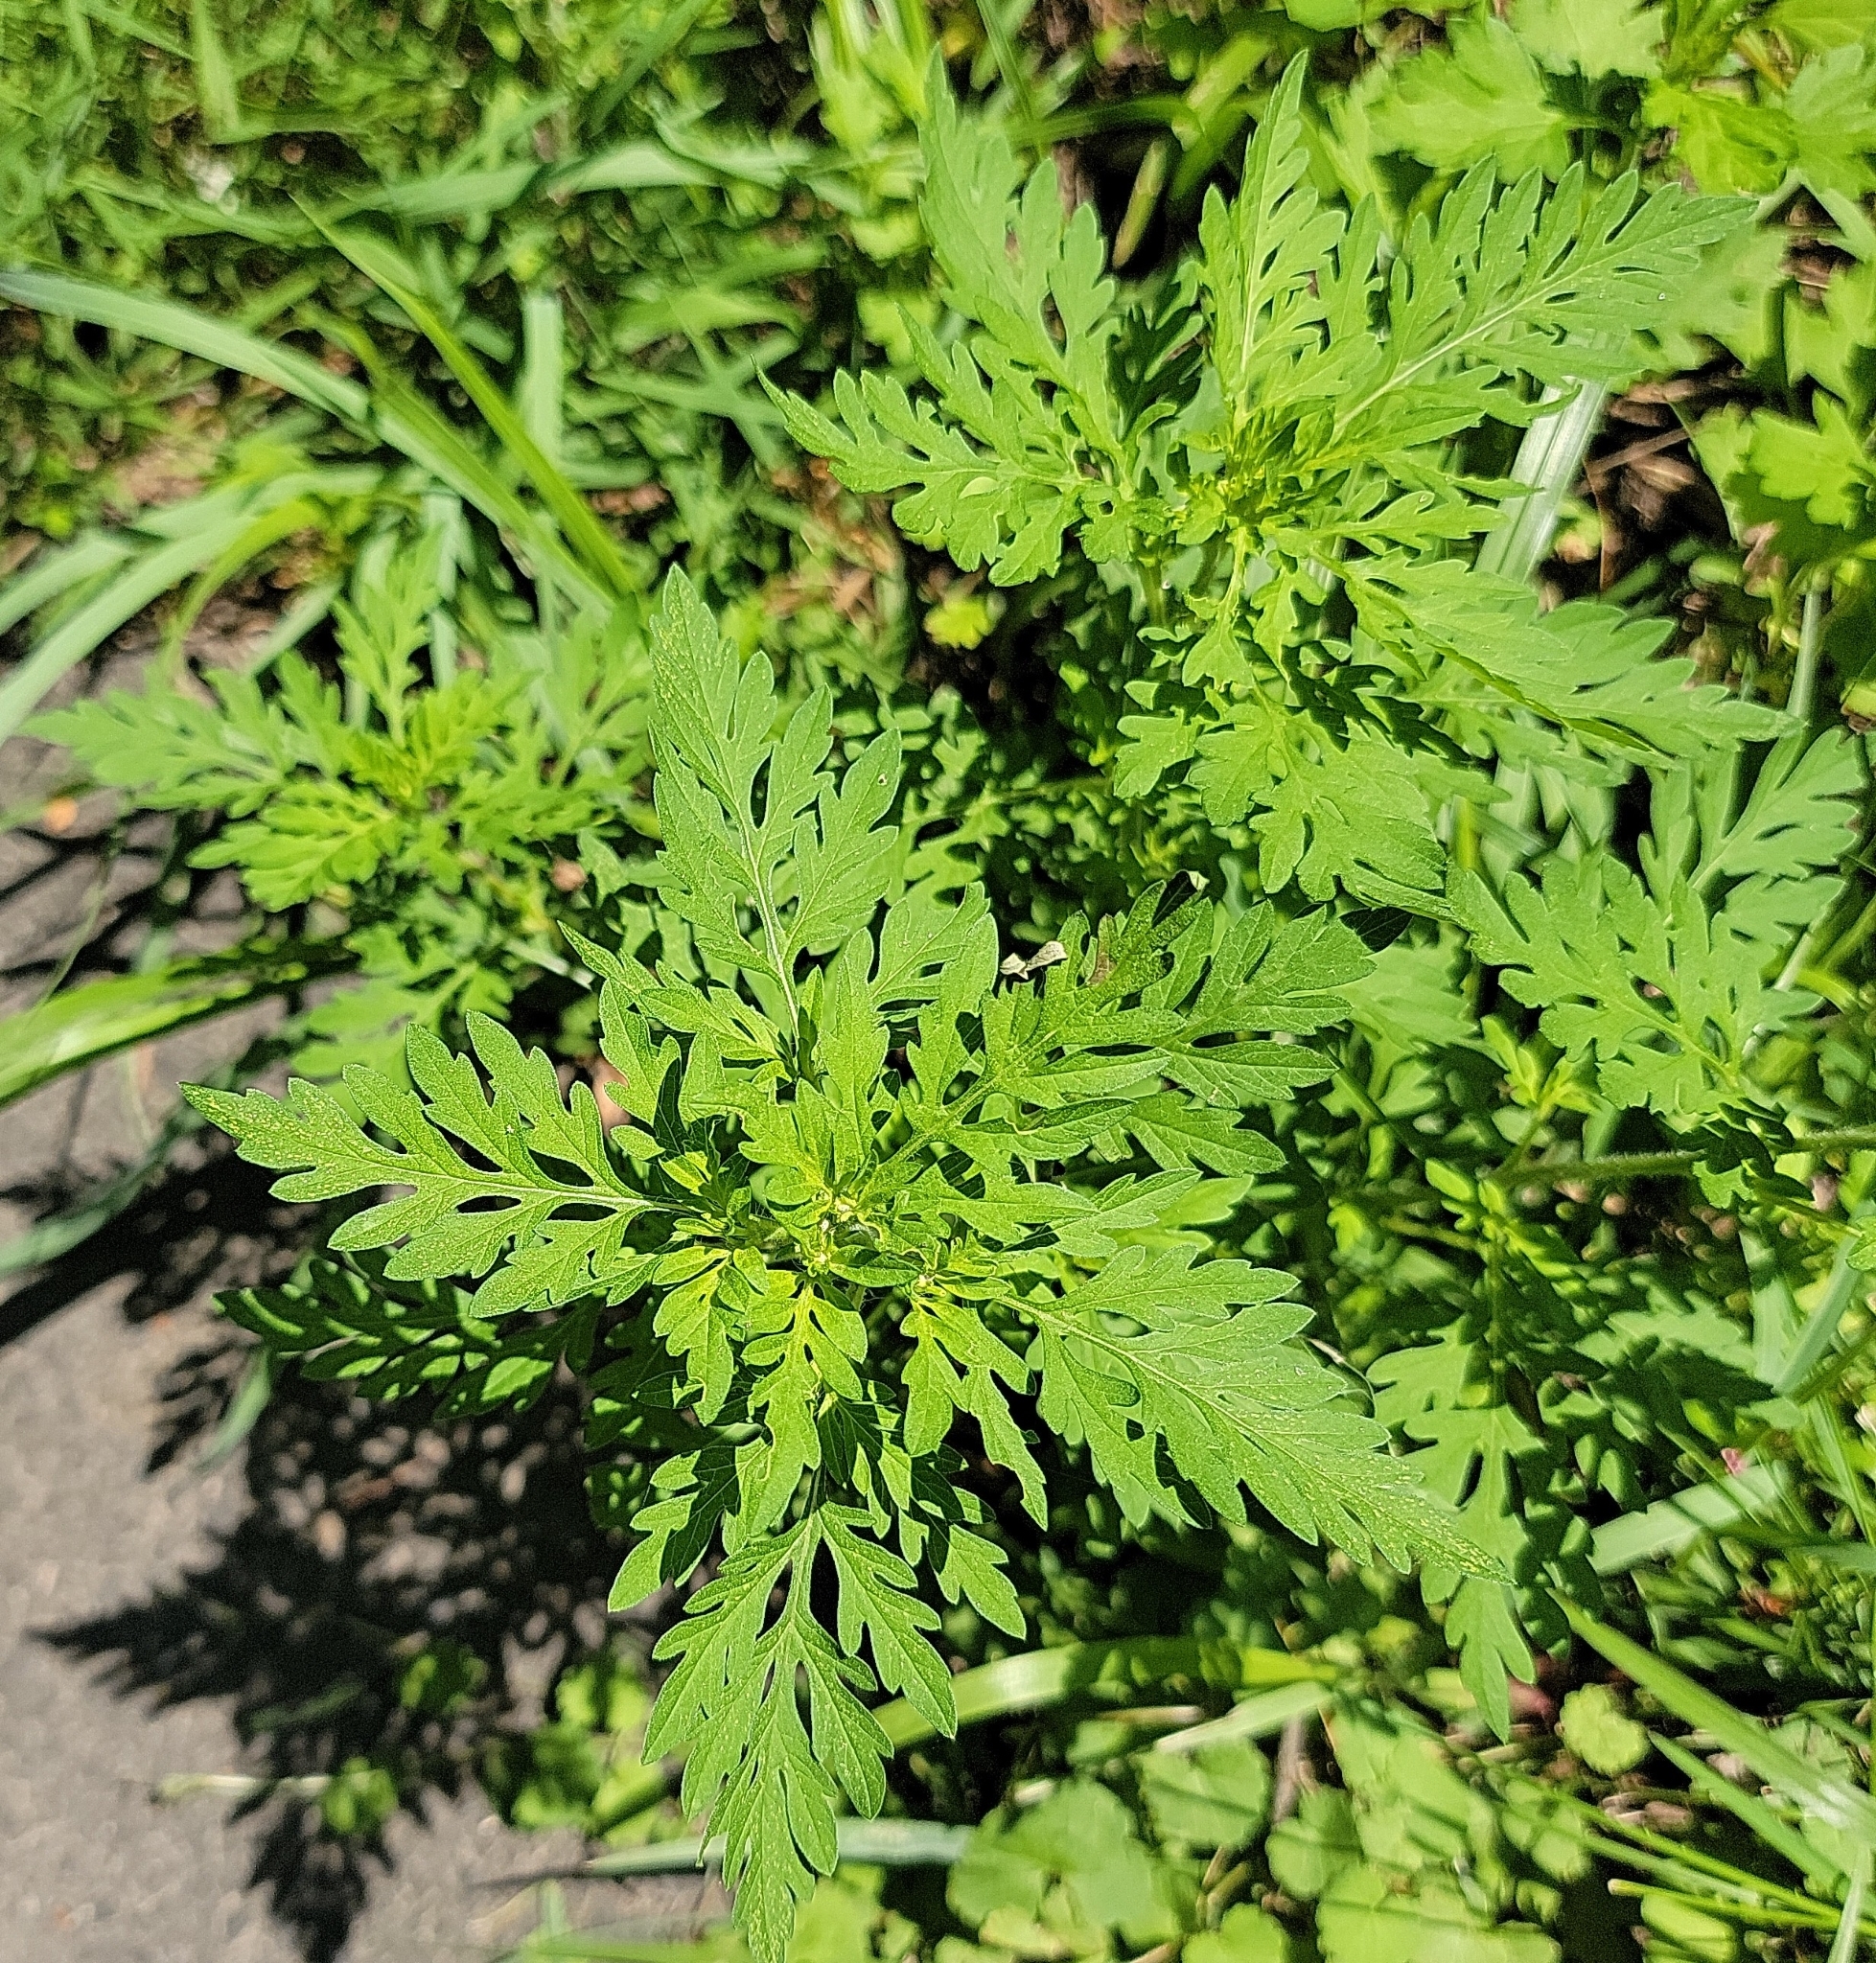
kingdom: Plantae
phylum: Tracheophyta
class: Magnoliopsida
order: Asterales
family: Asteraceae
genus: Ambrosia
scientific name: Ambrosia artemisiifolia
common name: Annual ragweed
